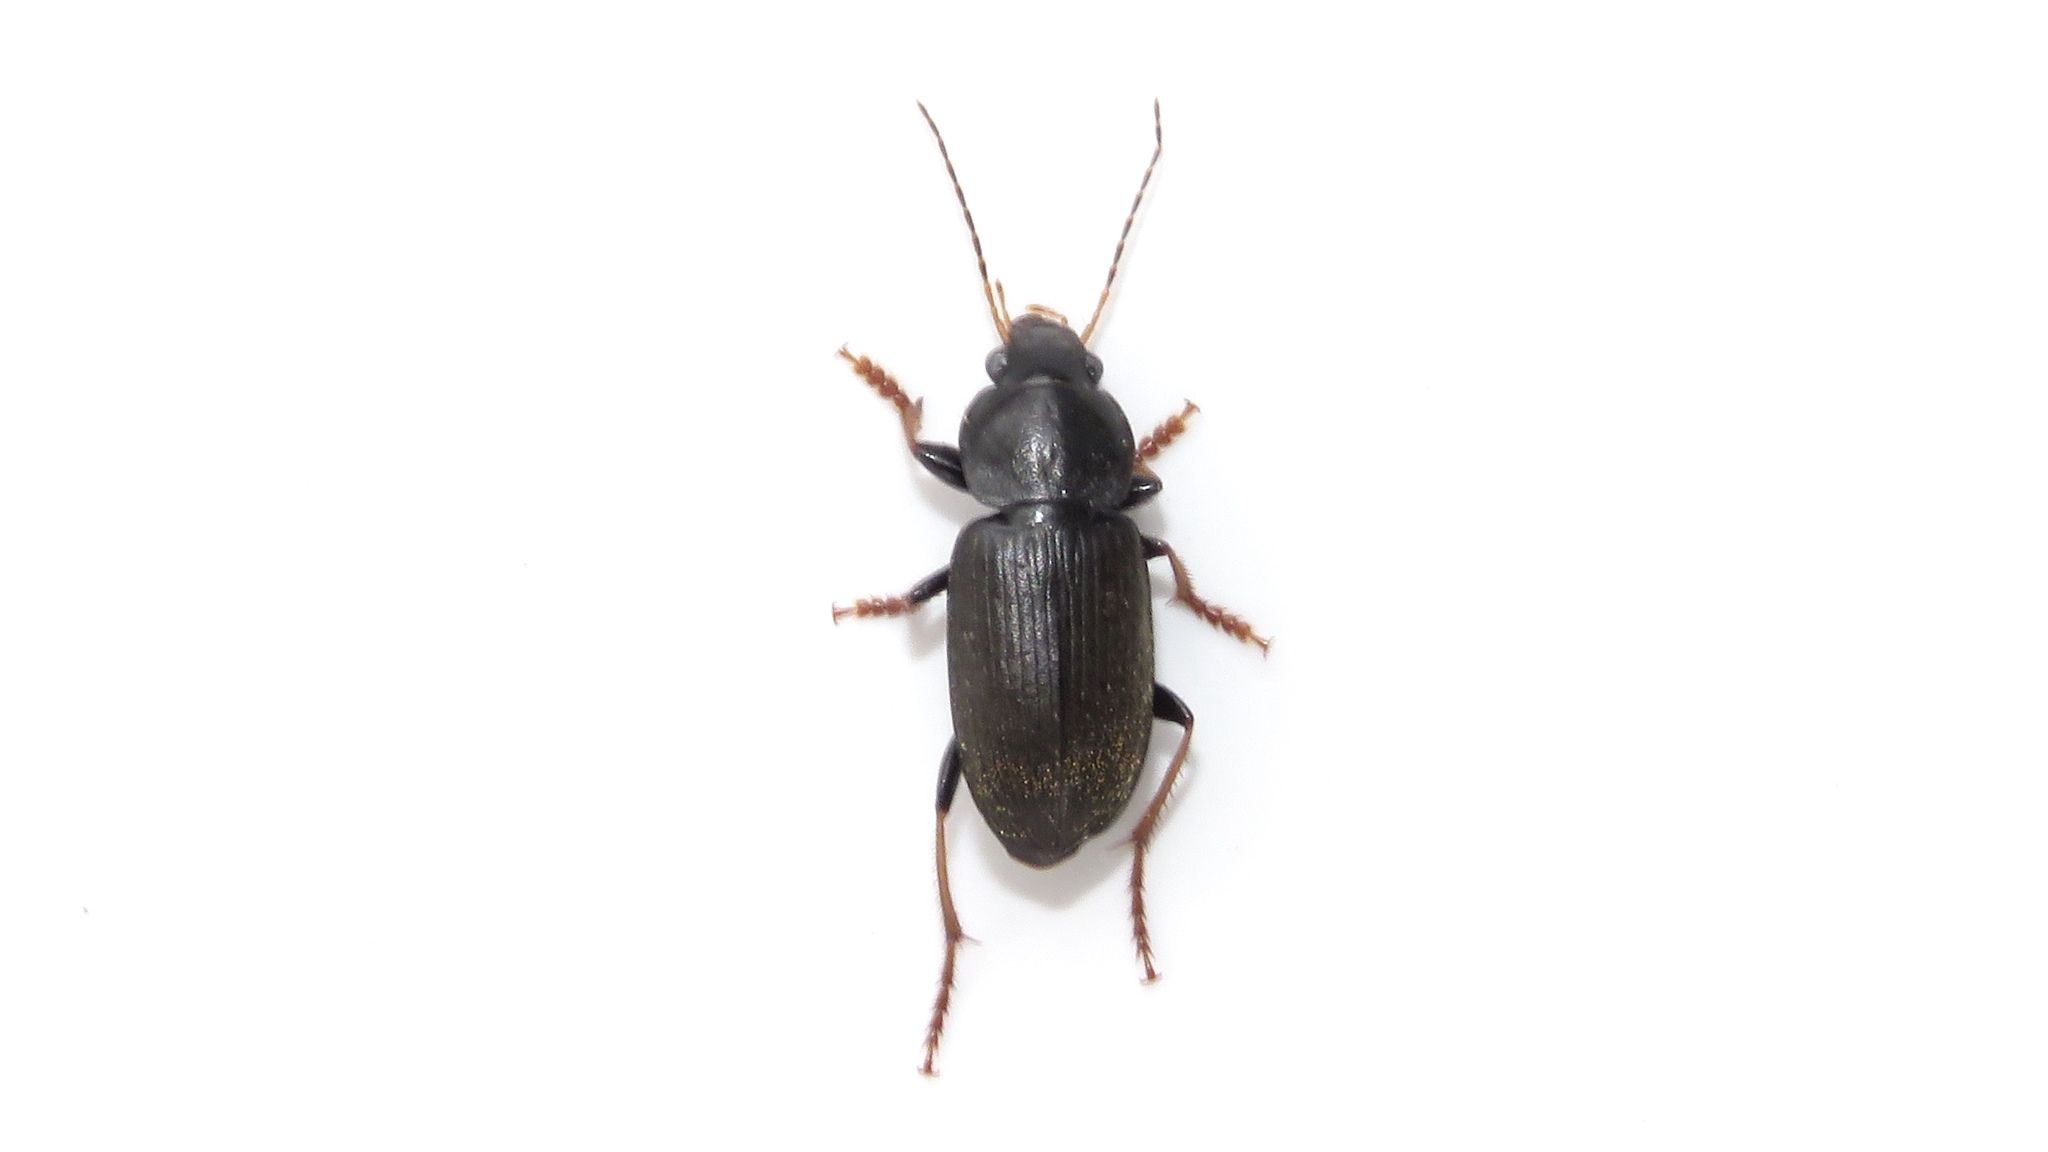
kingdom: Animalia
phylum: Arthropoda
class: Insecta
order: Coleoptera
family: Carabidae
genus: Amphasia
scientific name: Amphasia sericea
